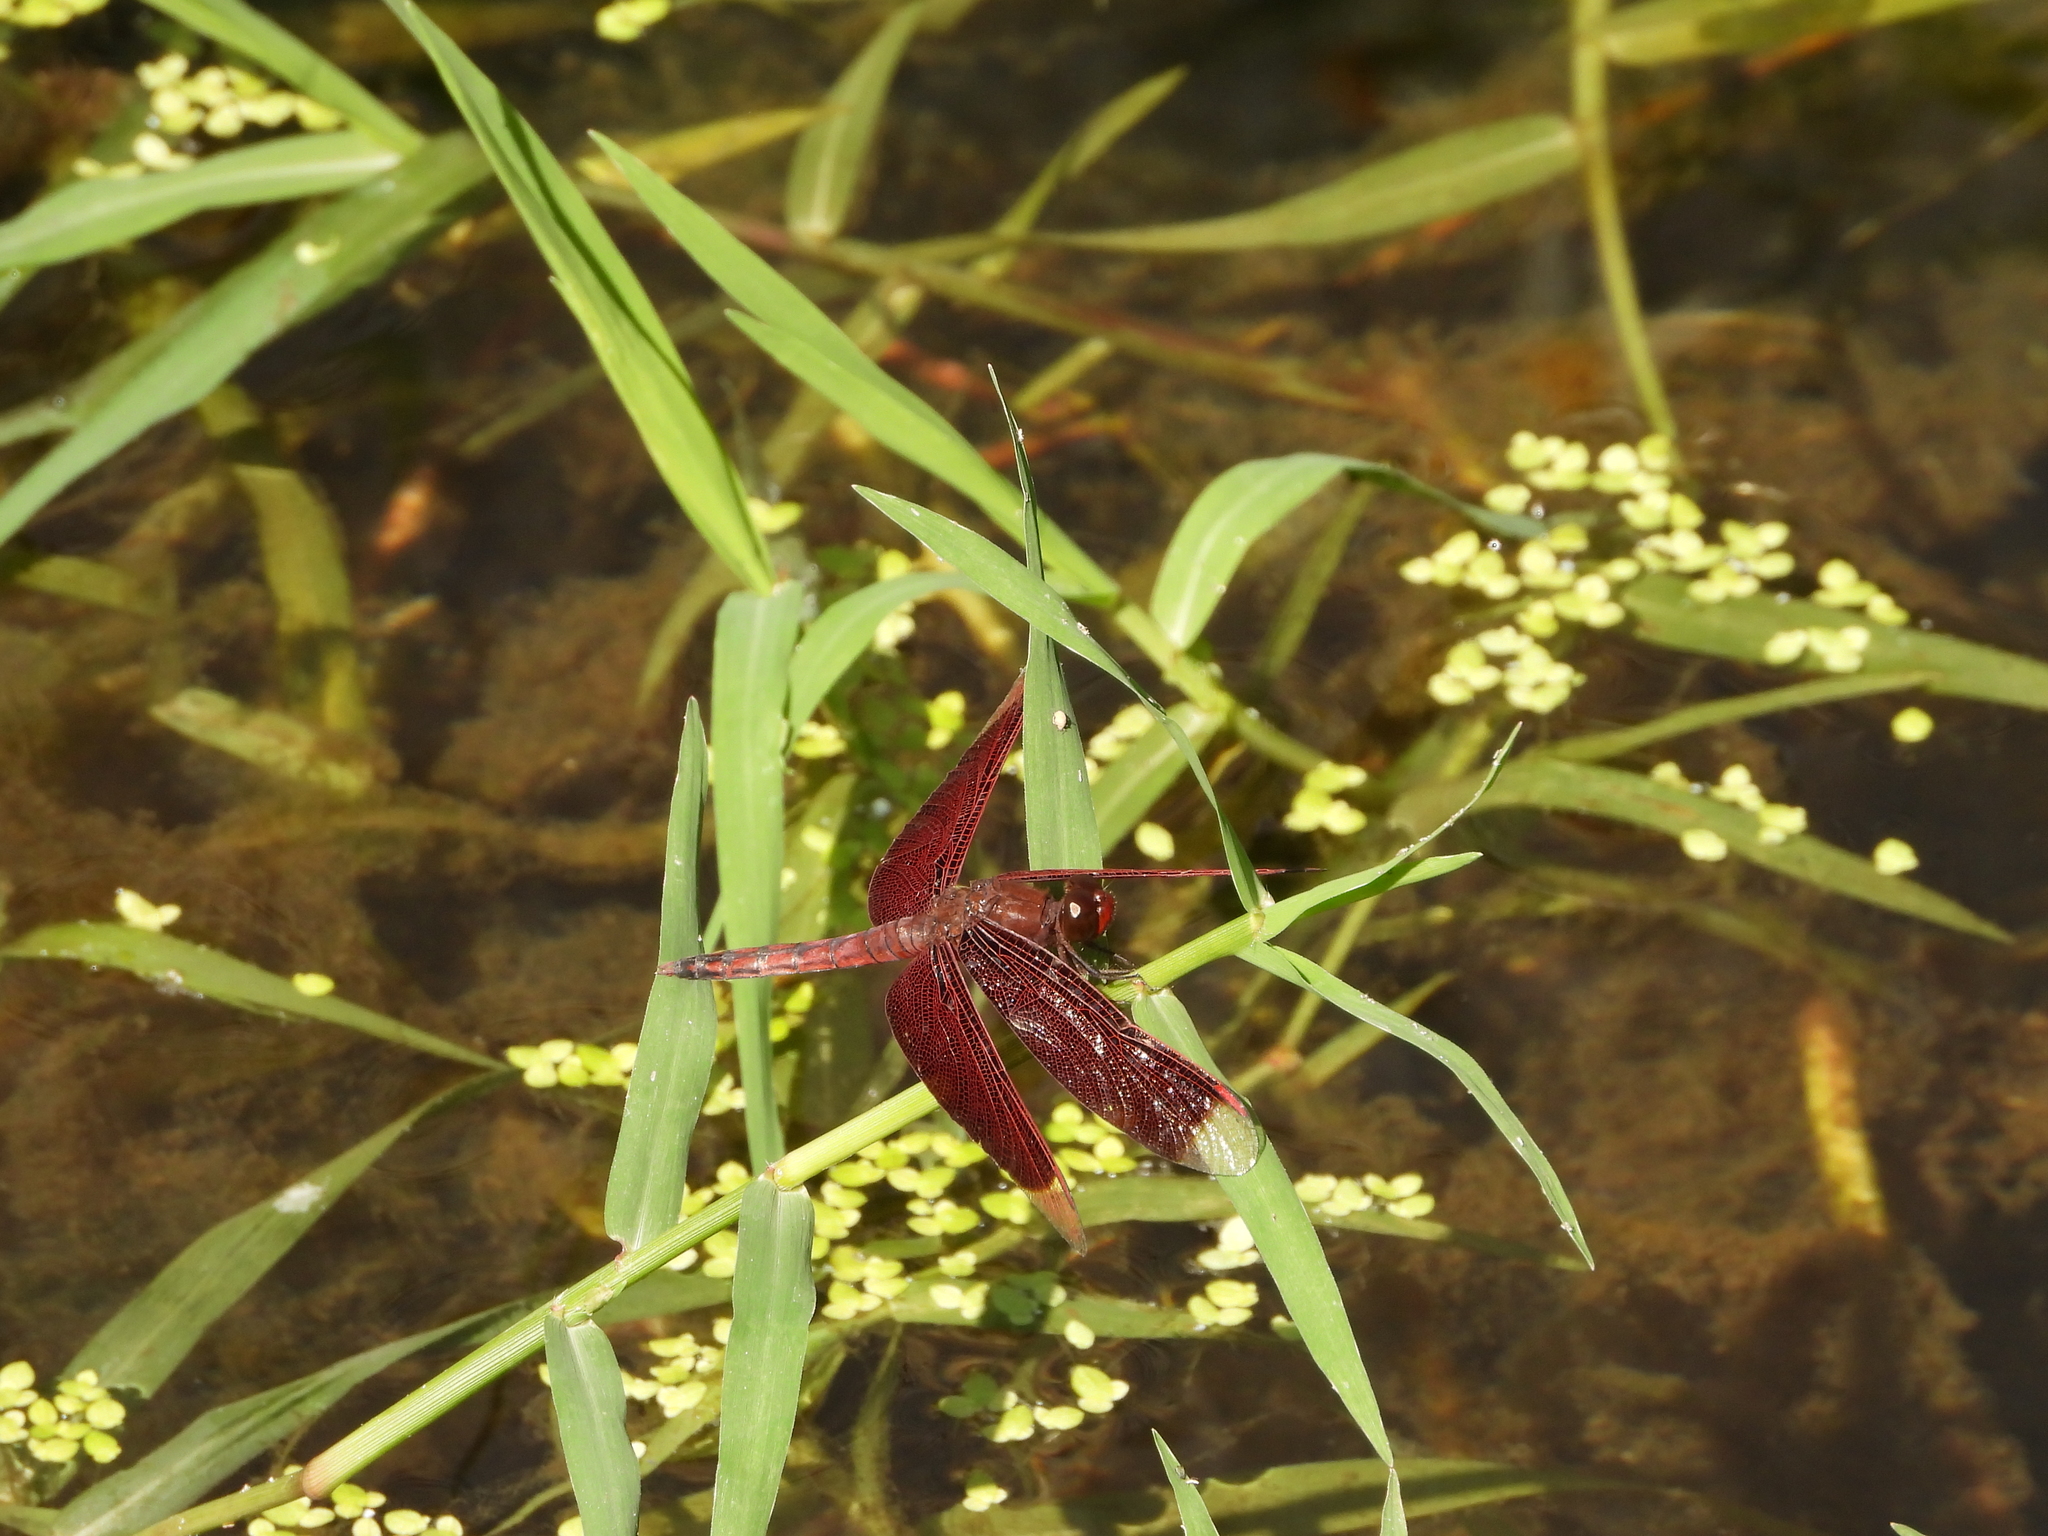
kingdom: Animalia
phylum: Arthropoda
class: Insecta
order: Odonata
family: Libellulidae
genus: Neurothemis
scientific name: Neurothemis taiwanensis
